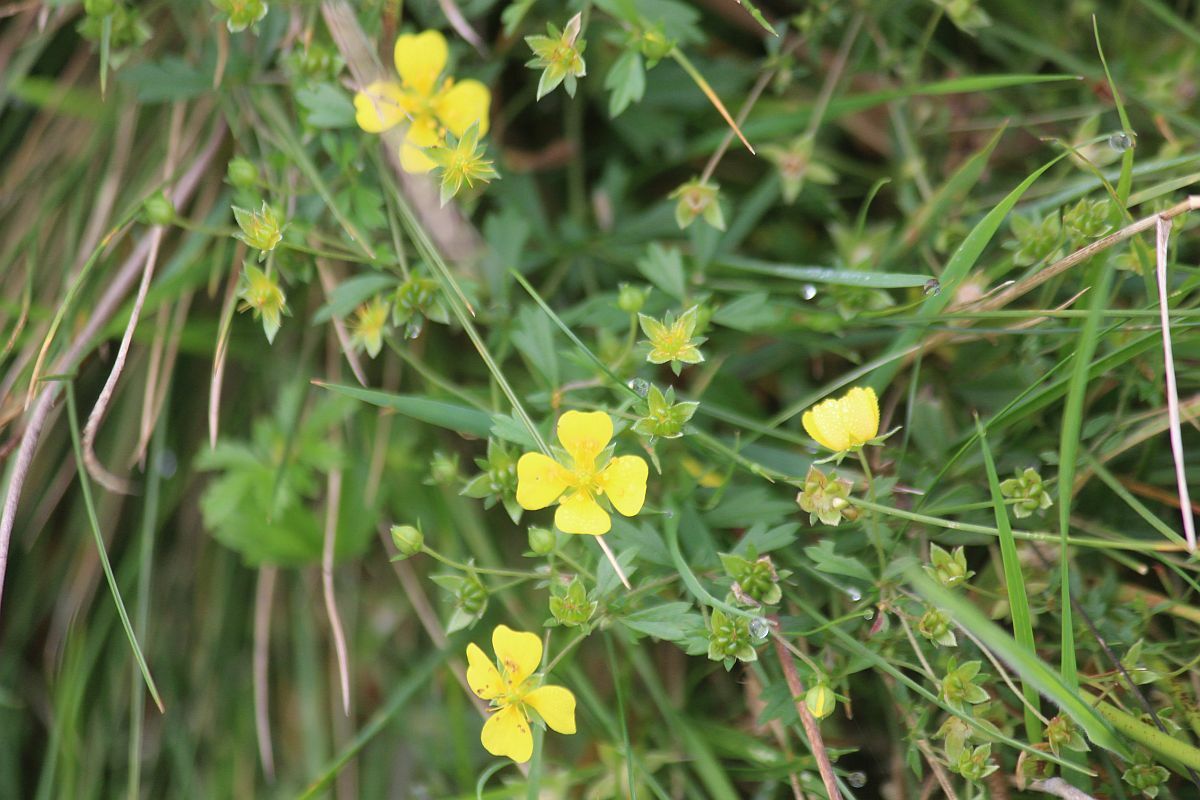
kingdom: Plantae
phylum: Tracheophyta
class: Magnoliopsida
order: Rosales
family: Rosaceae
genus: Potentilla
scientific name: Potentilla erecta
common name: Tormentil
